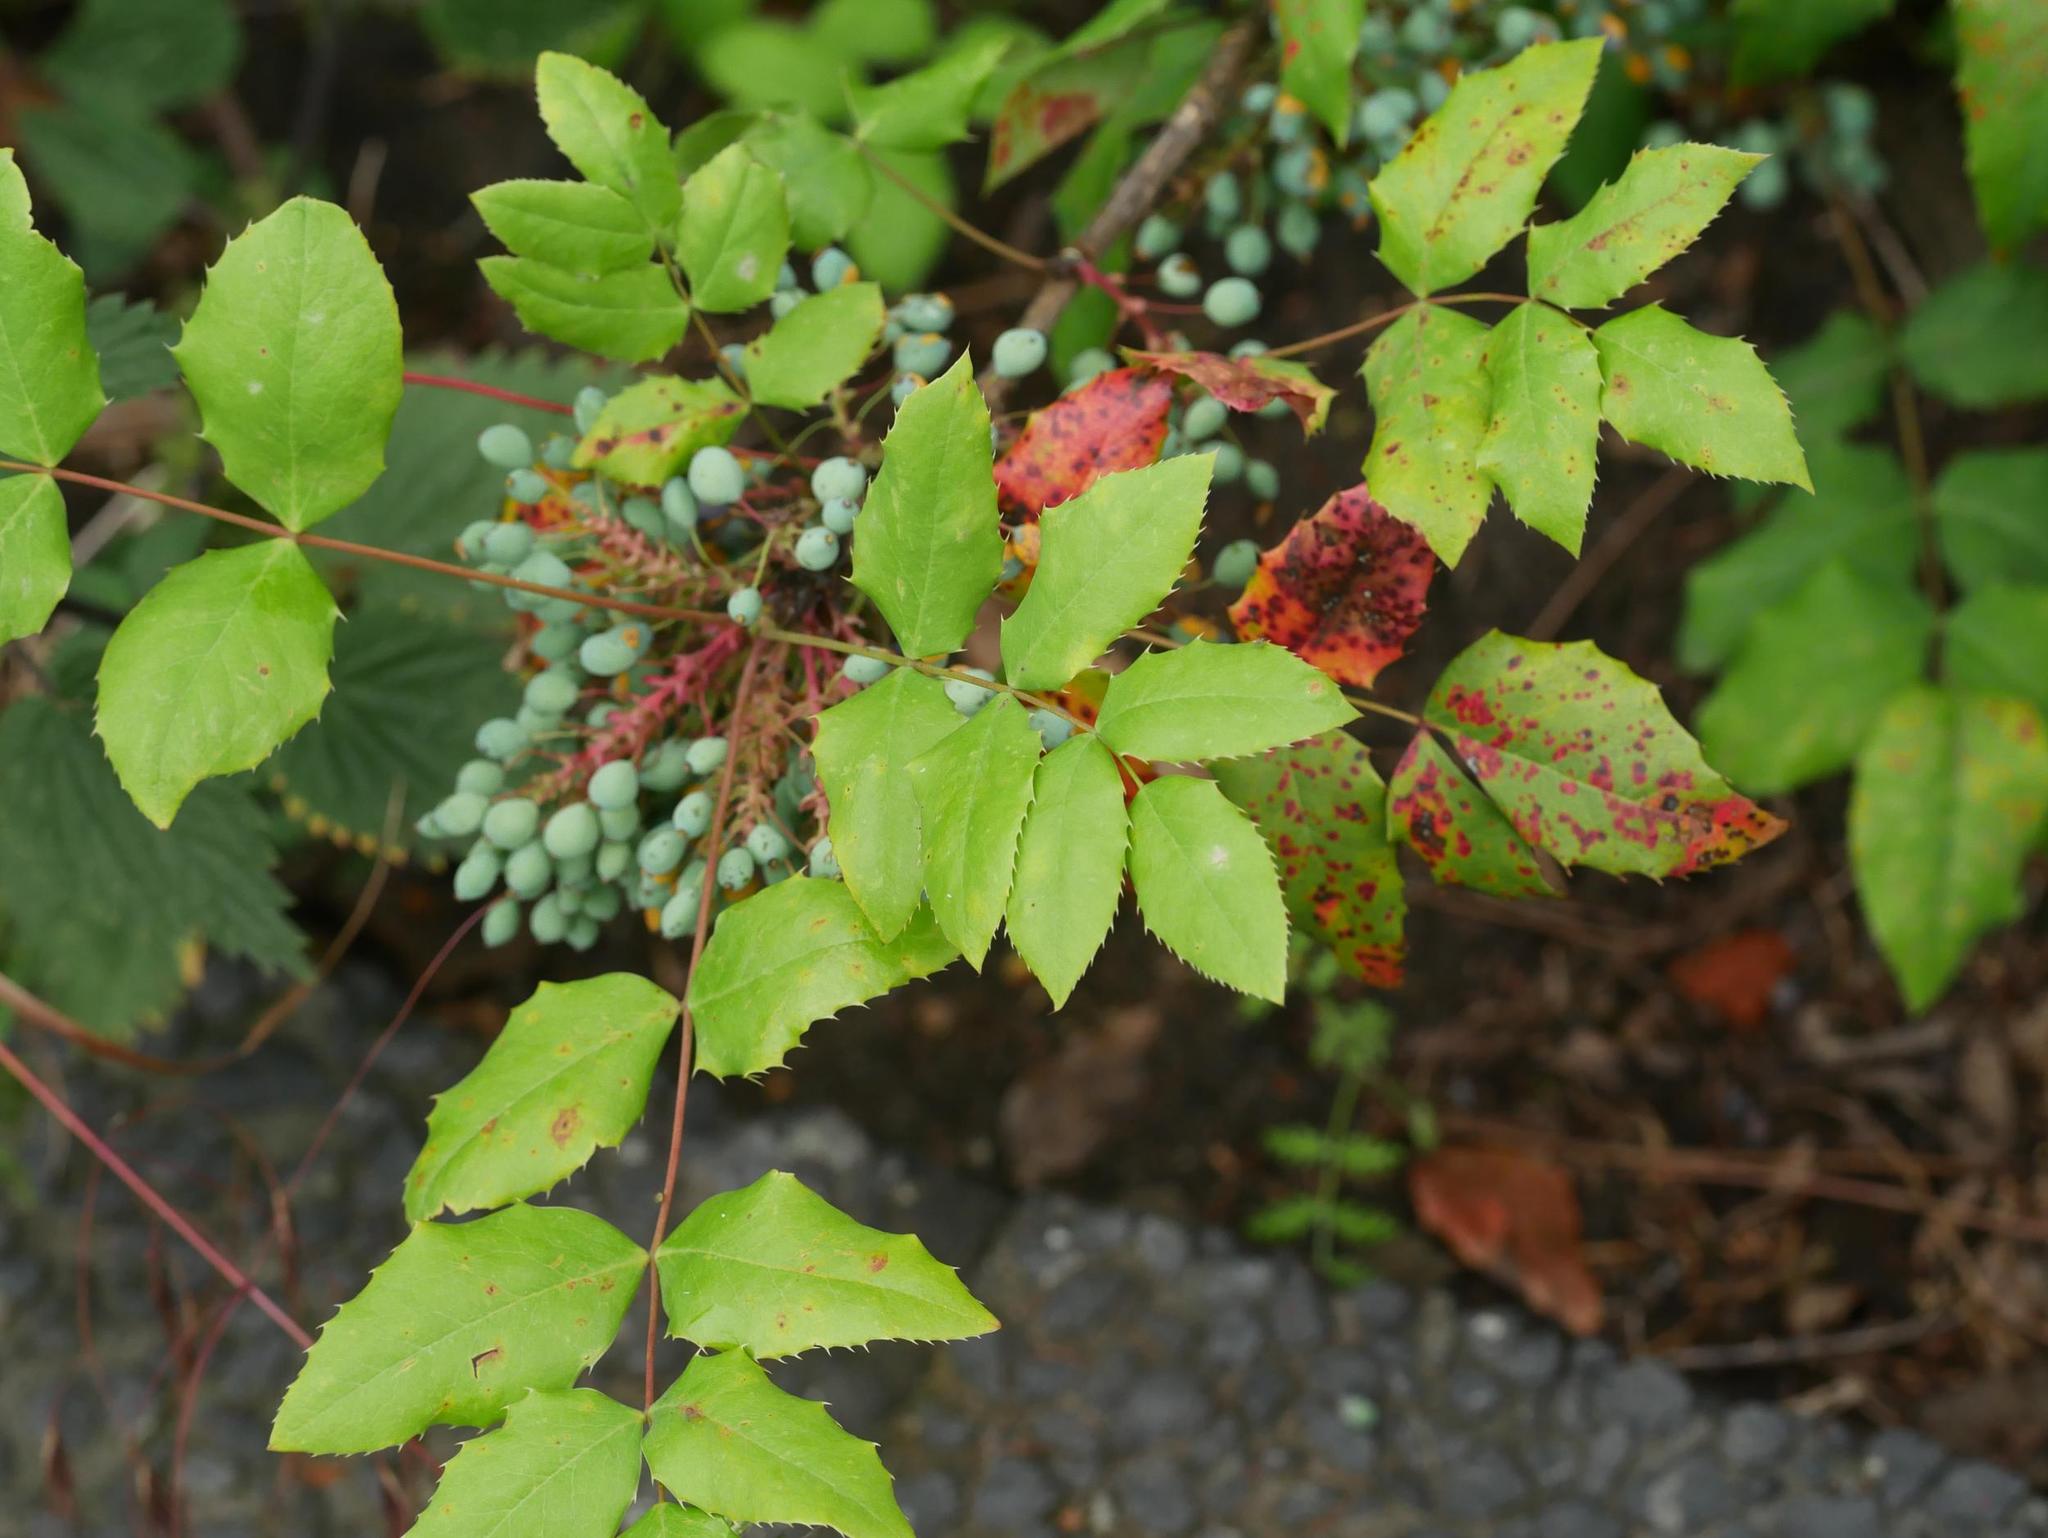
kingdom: Plantae
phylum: Tracheophyta
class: Magnoliopsida
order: Ranunculales
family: Berberidaceae
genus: Mahonia
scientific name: Mahonia aquifolium
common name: Oregon-grape
